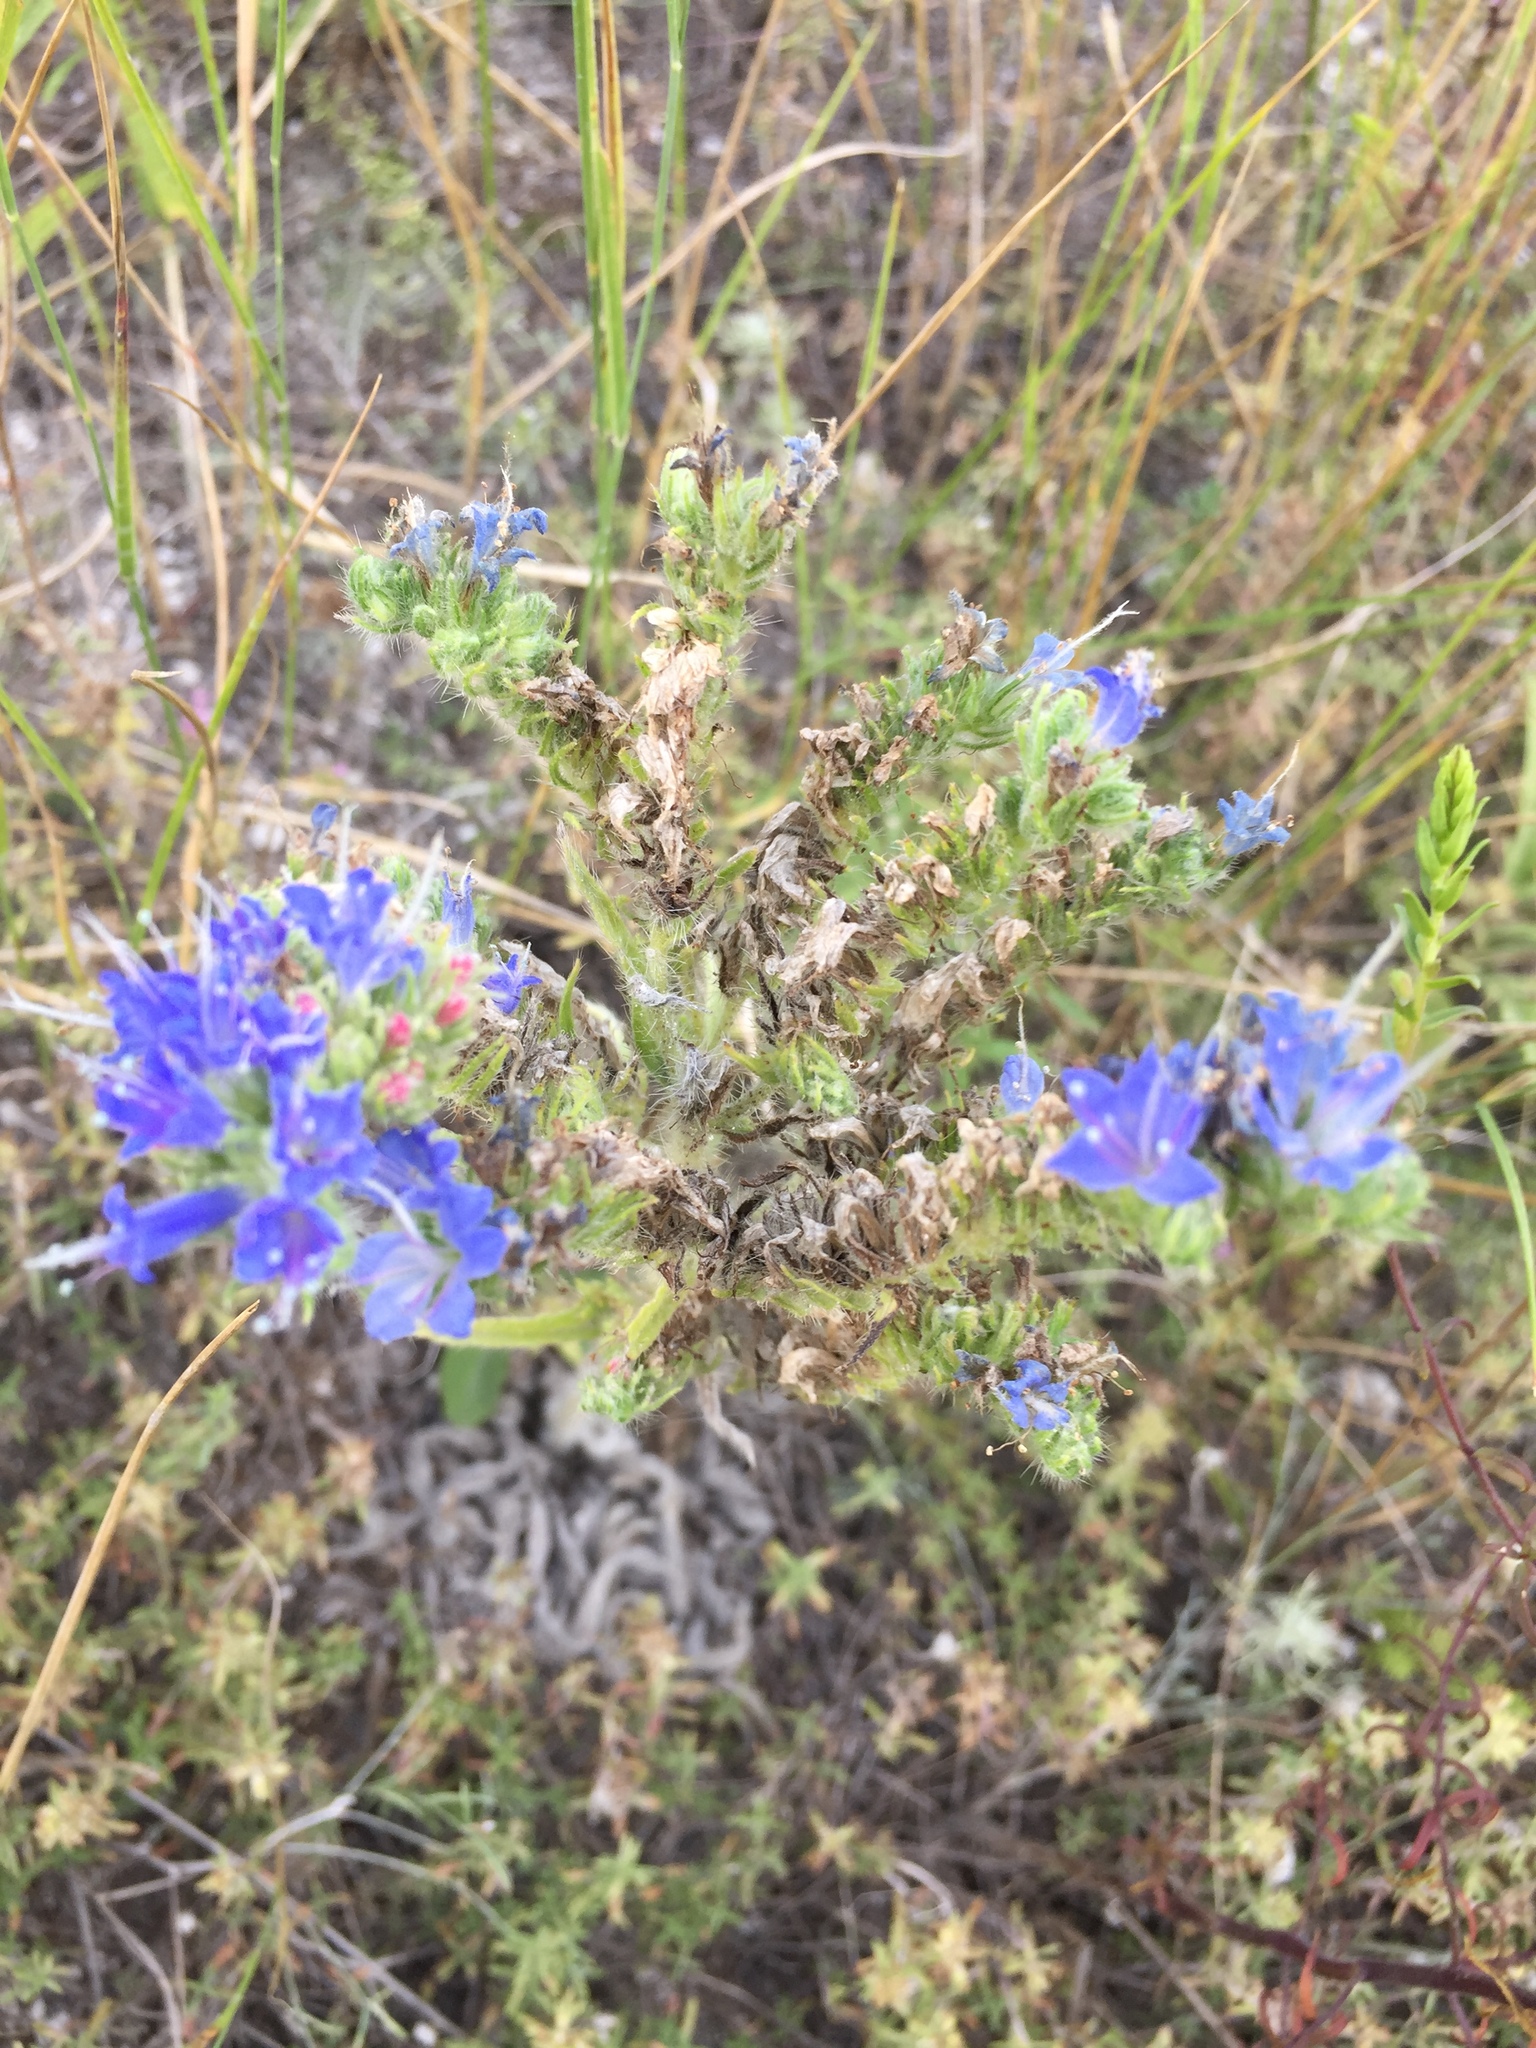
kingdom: Plantae
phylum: Tracheophyta
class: Magnoliopsida
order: Boraginales
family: Boraginaceae
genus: Echium
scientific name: Echium vulgare
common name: Common viper's bugloss
